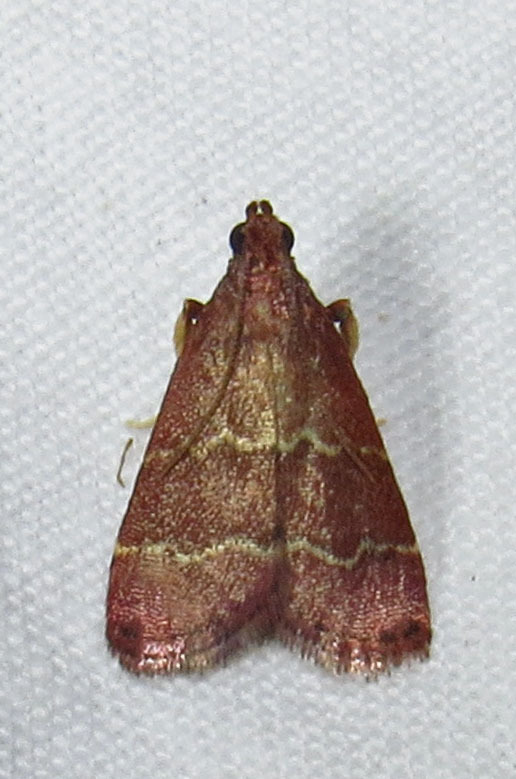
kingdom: Animalia
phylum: Arthropoda
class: Insecta
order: Lepidoptera
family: Pyralidae
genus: Arta
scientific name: Arta
